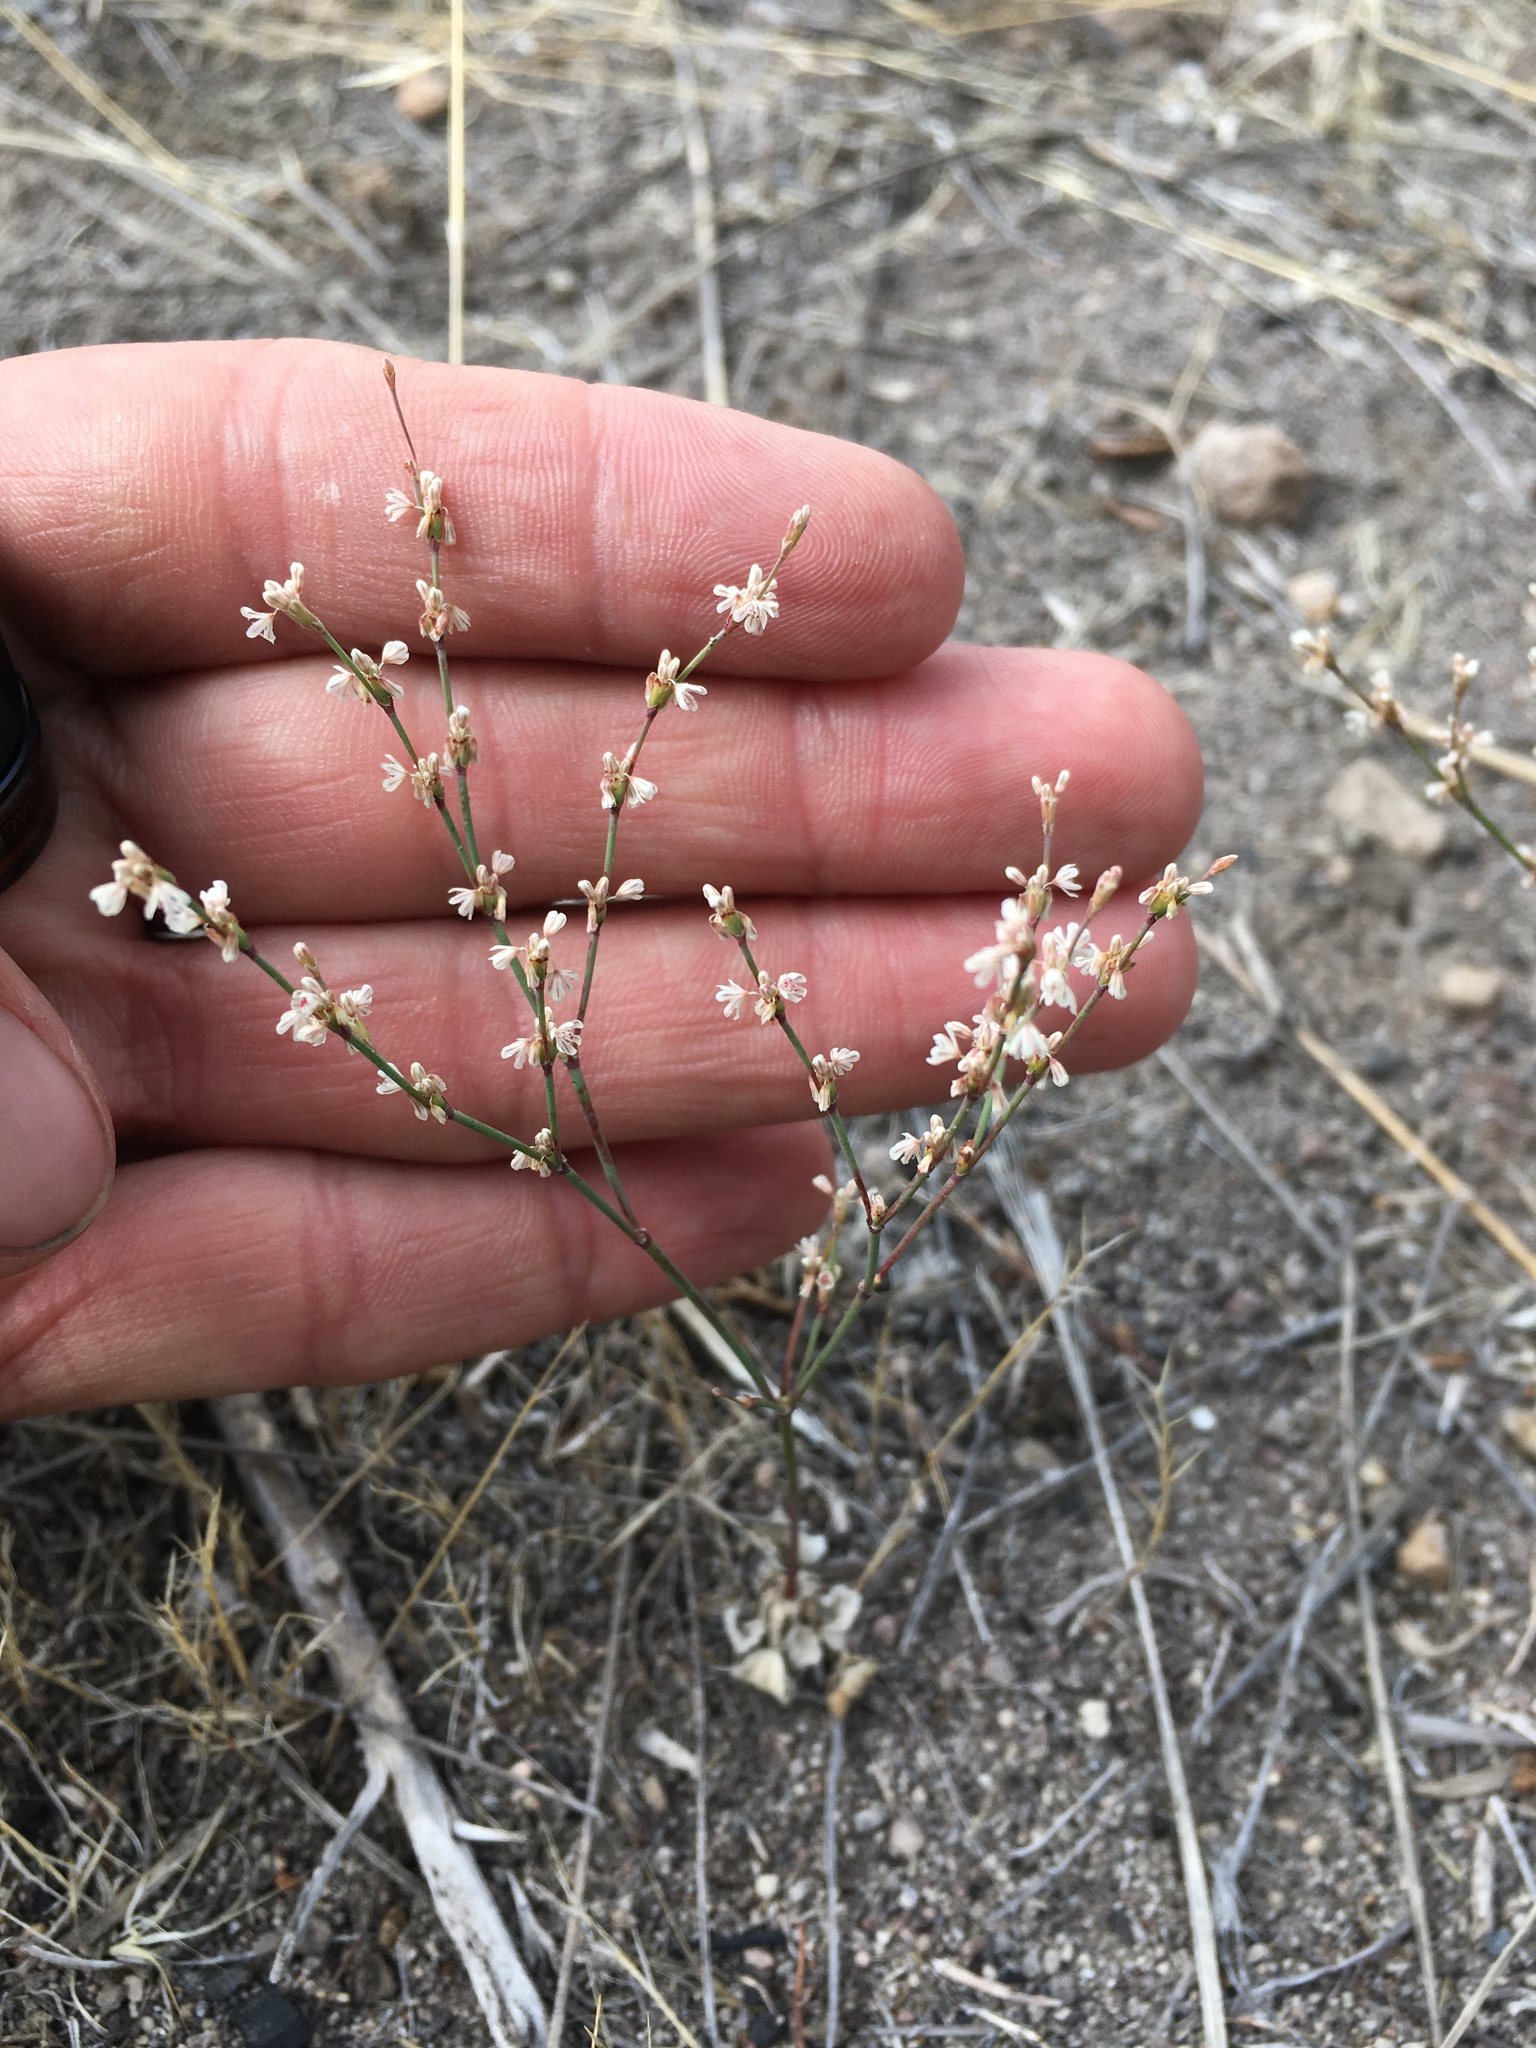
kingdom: Plantae
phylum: Tracheophyta
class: Magnoliopsida
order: Caryophyllales
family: Polygonaceae
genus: Eriogonum
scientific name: Eriogonum baileyi
